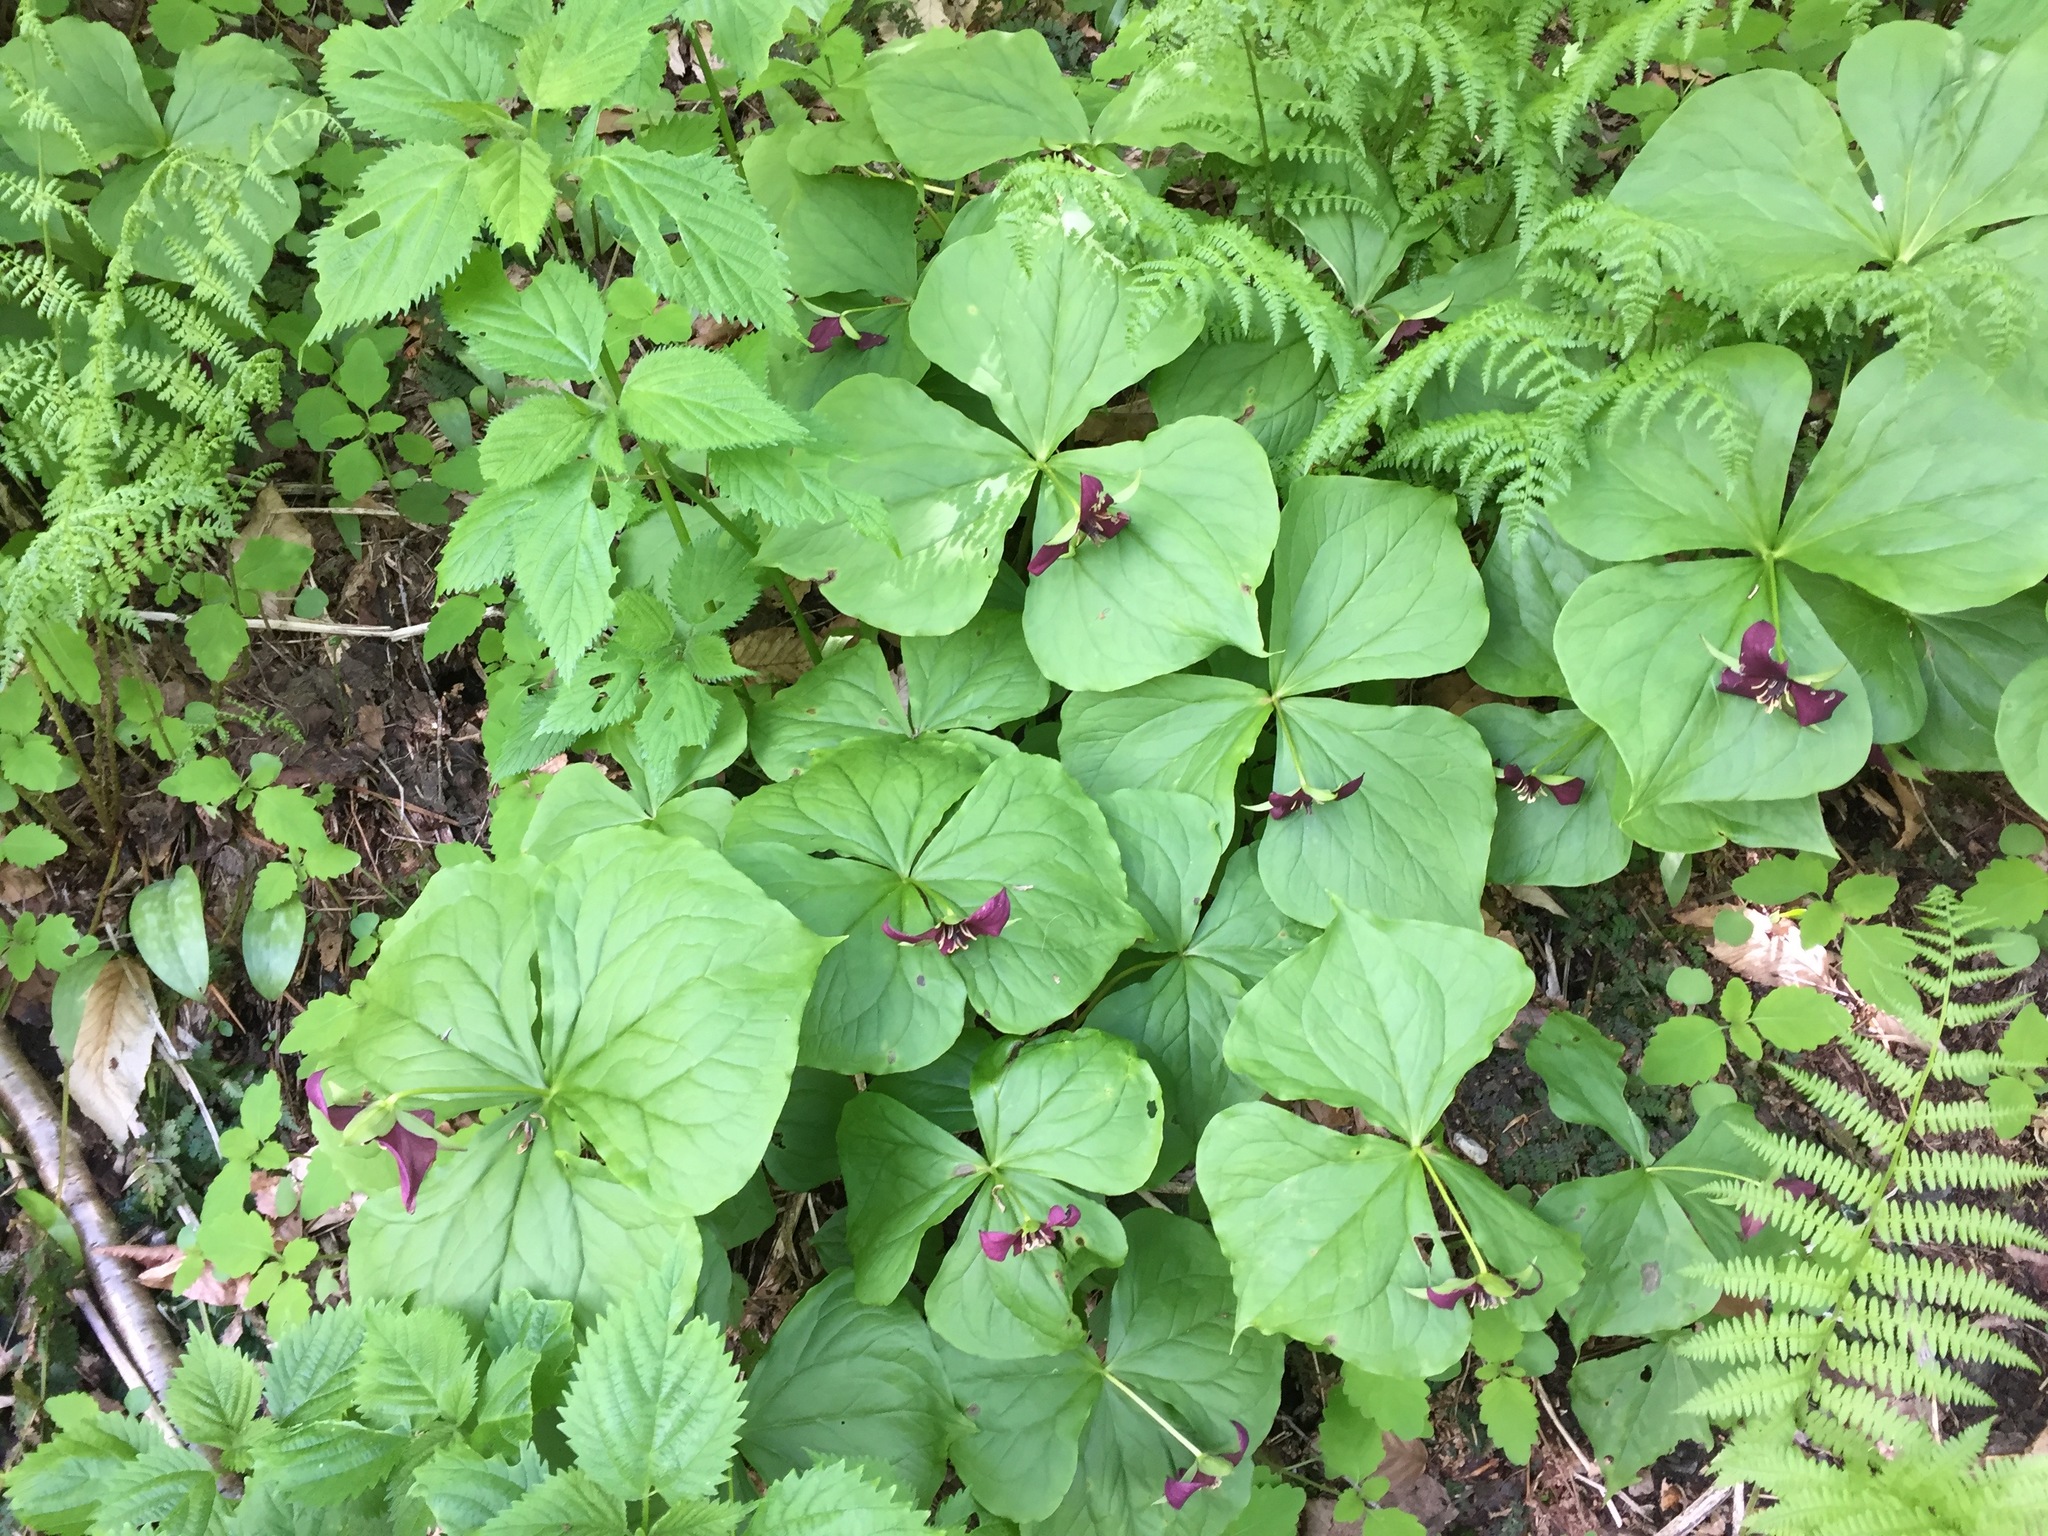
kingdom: Plantae
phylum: Tracheophyta
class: Liliopsida
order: Liliales
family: Melanthiaceae
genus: Trillium
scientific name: Trillium erectum
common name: Purple trillium
